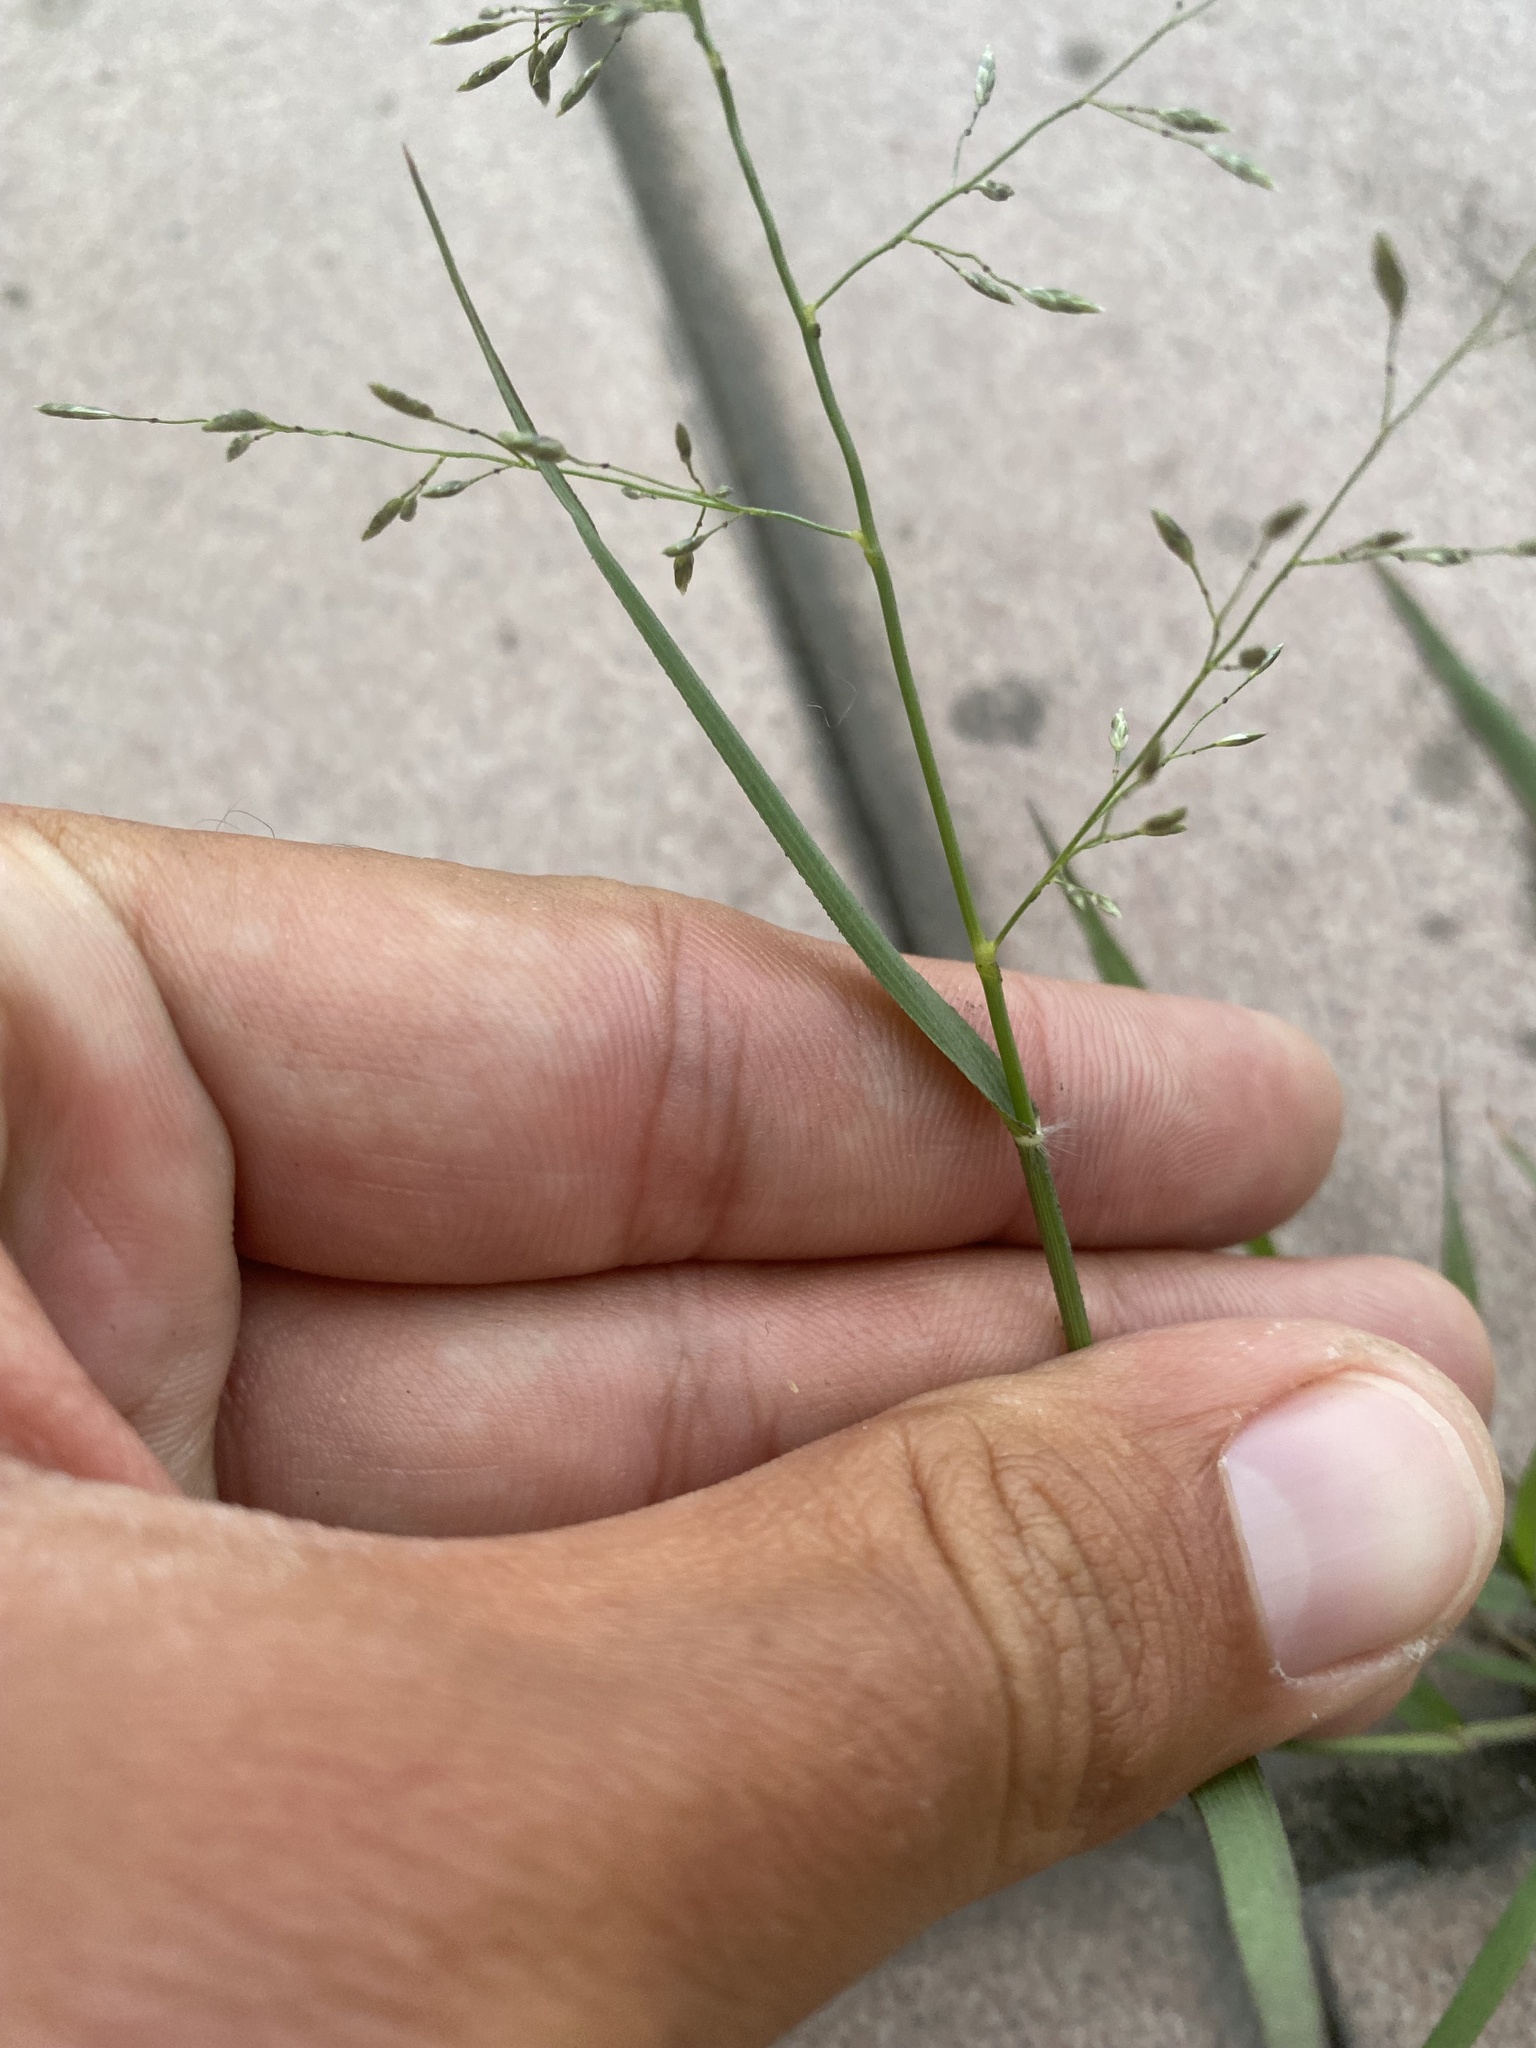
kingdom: Plantae
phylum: Tracheophyta
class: Liliopsida
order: Poales
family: Poaceae
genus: Eragrostis
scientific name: Eragrostis minor
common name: Small love-grass
